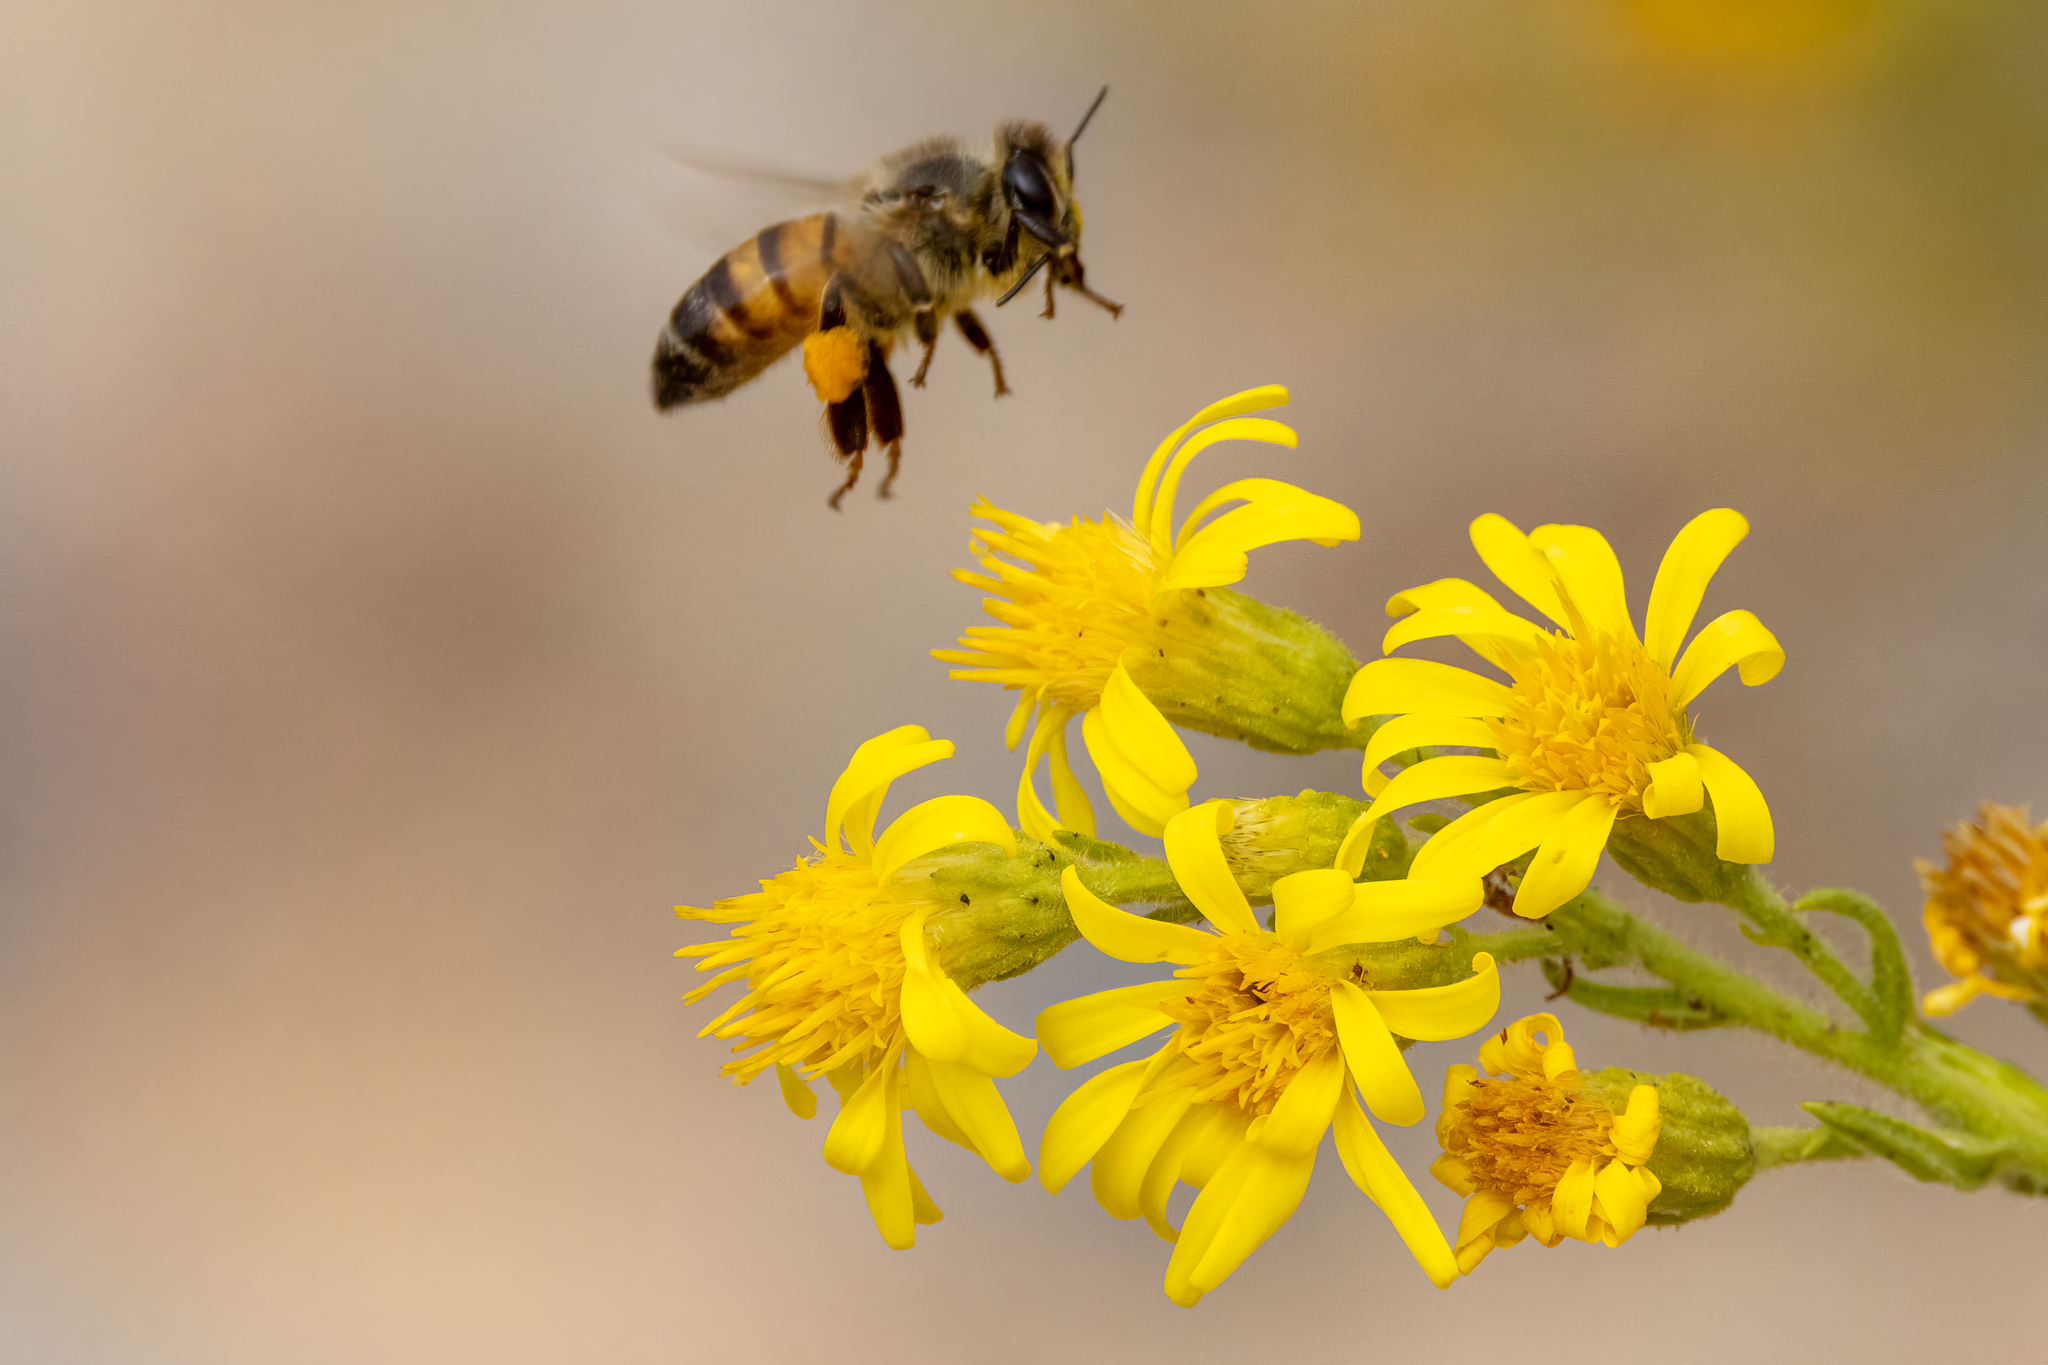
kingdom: Animalia
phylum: Arthropoda
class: Insecta
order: Hymenoptera
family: Apidae
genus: Apis
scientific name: Apis mellifera
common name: Honey bee
